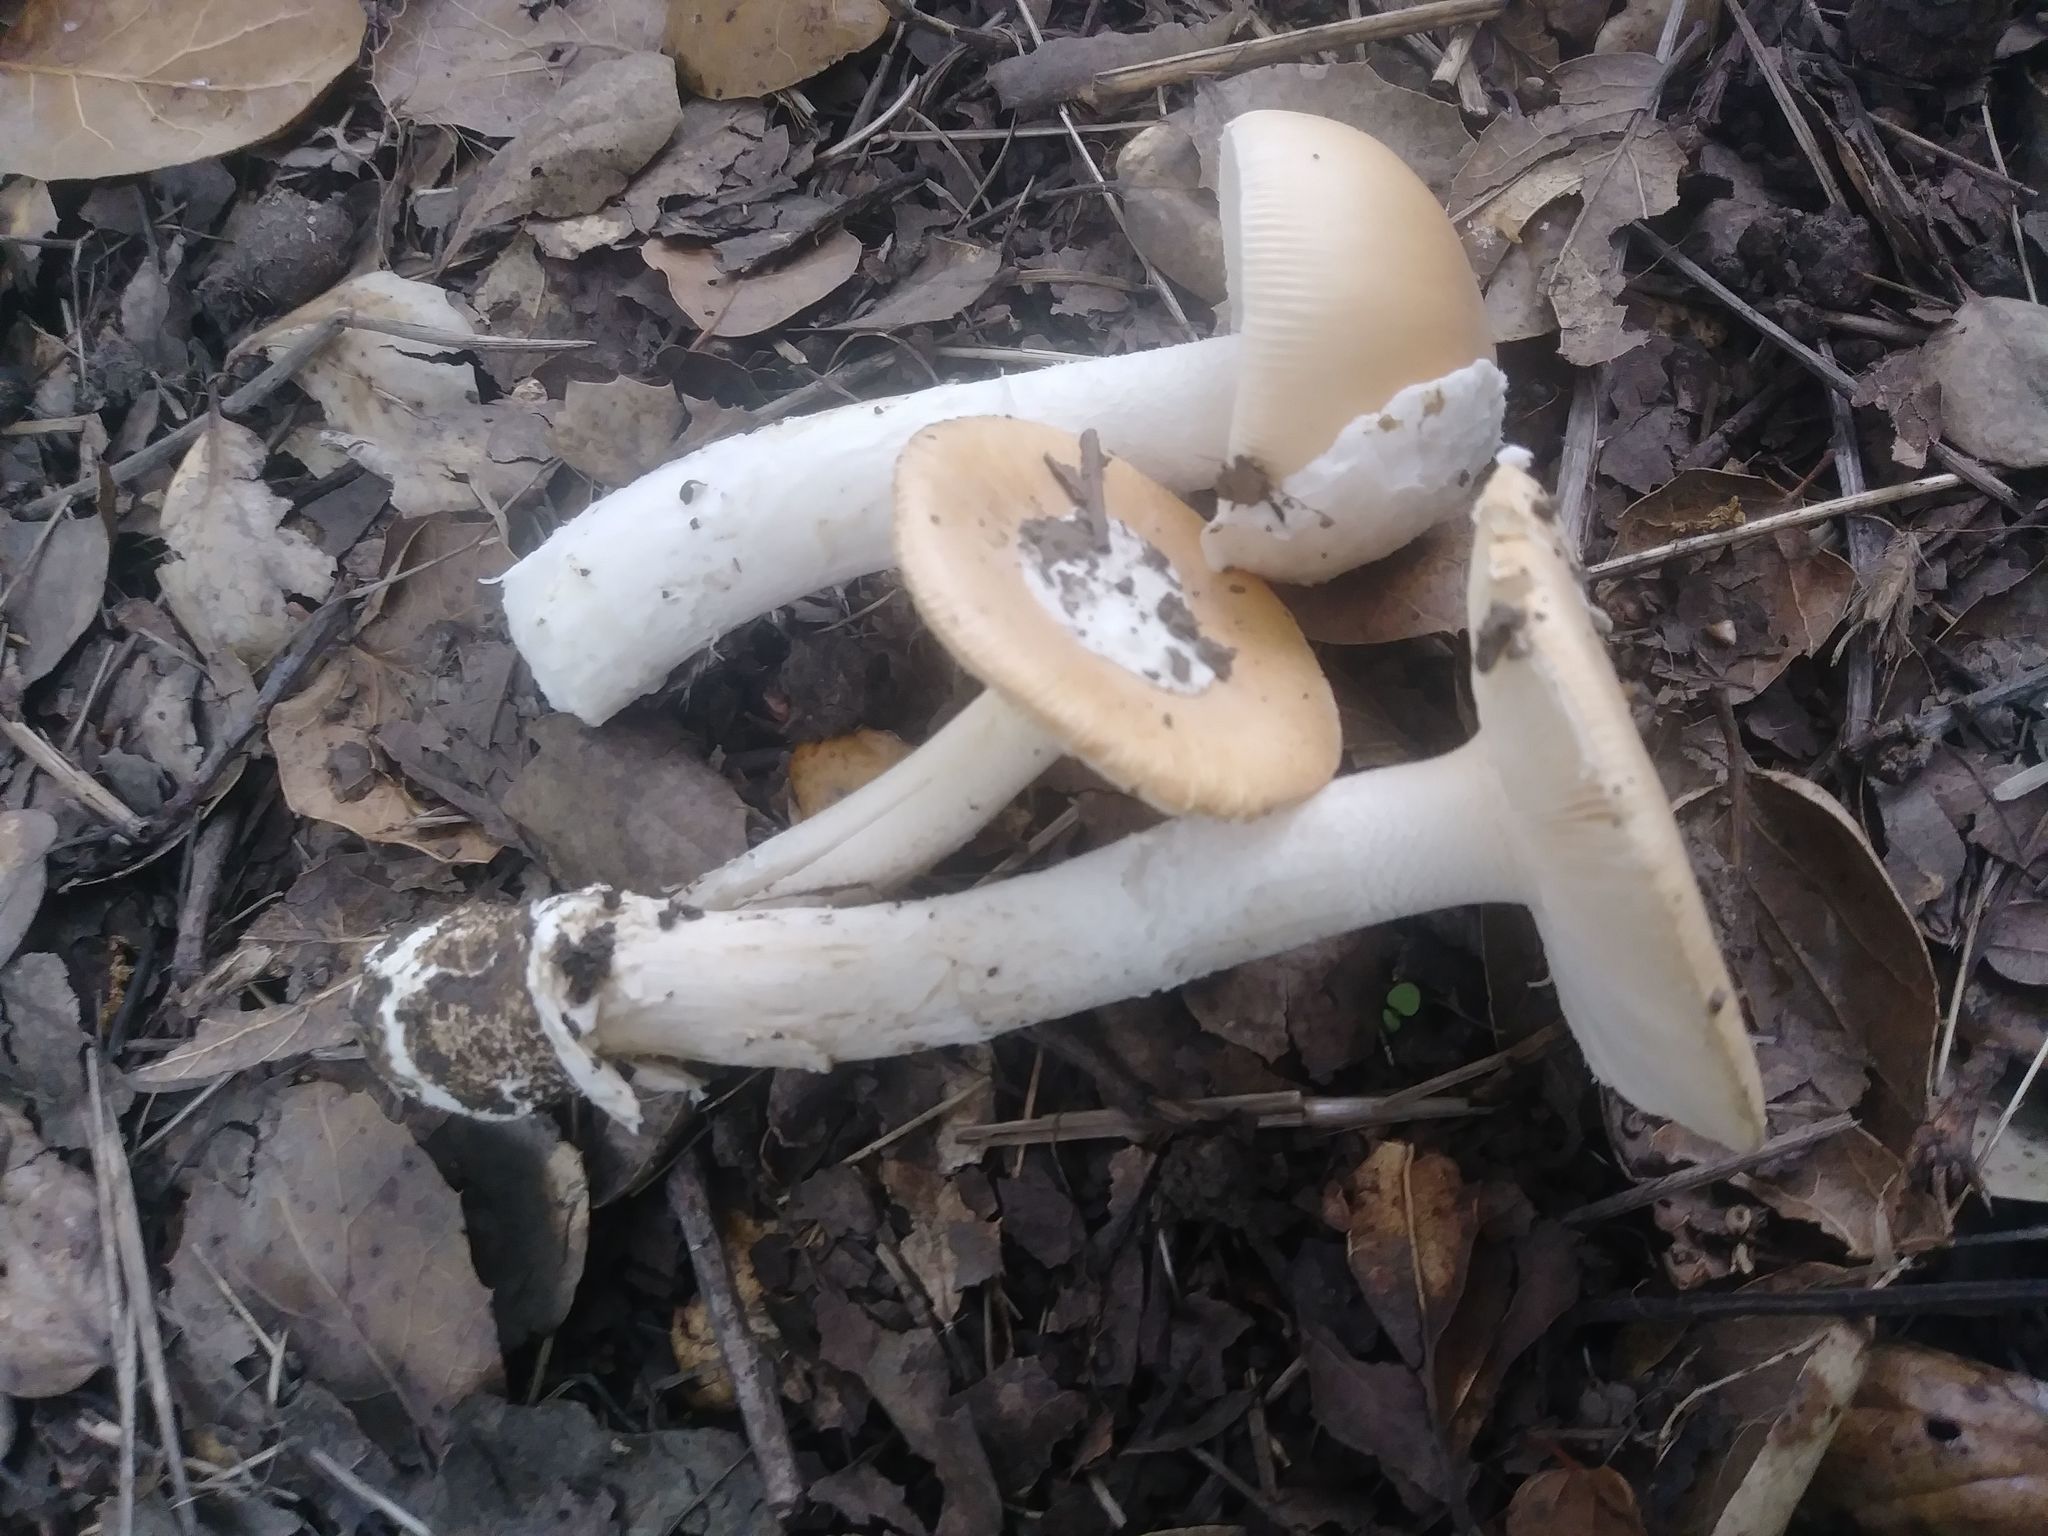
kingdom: Fungi
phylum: Basidiomycota
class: Agaricomycetes
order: Agaricales
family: Amanitaceae
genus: Amanita
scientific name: Amanita velosa
